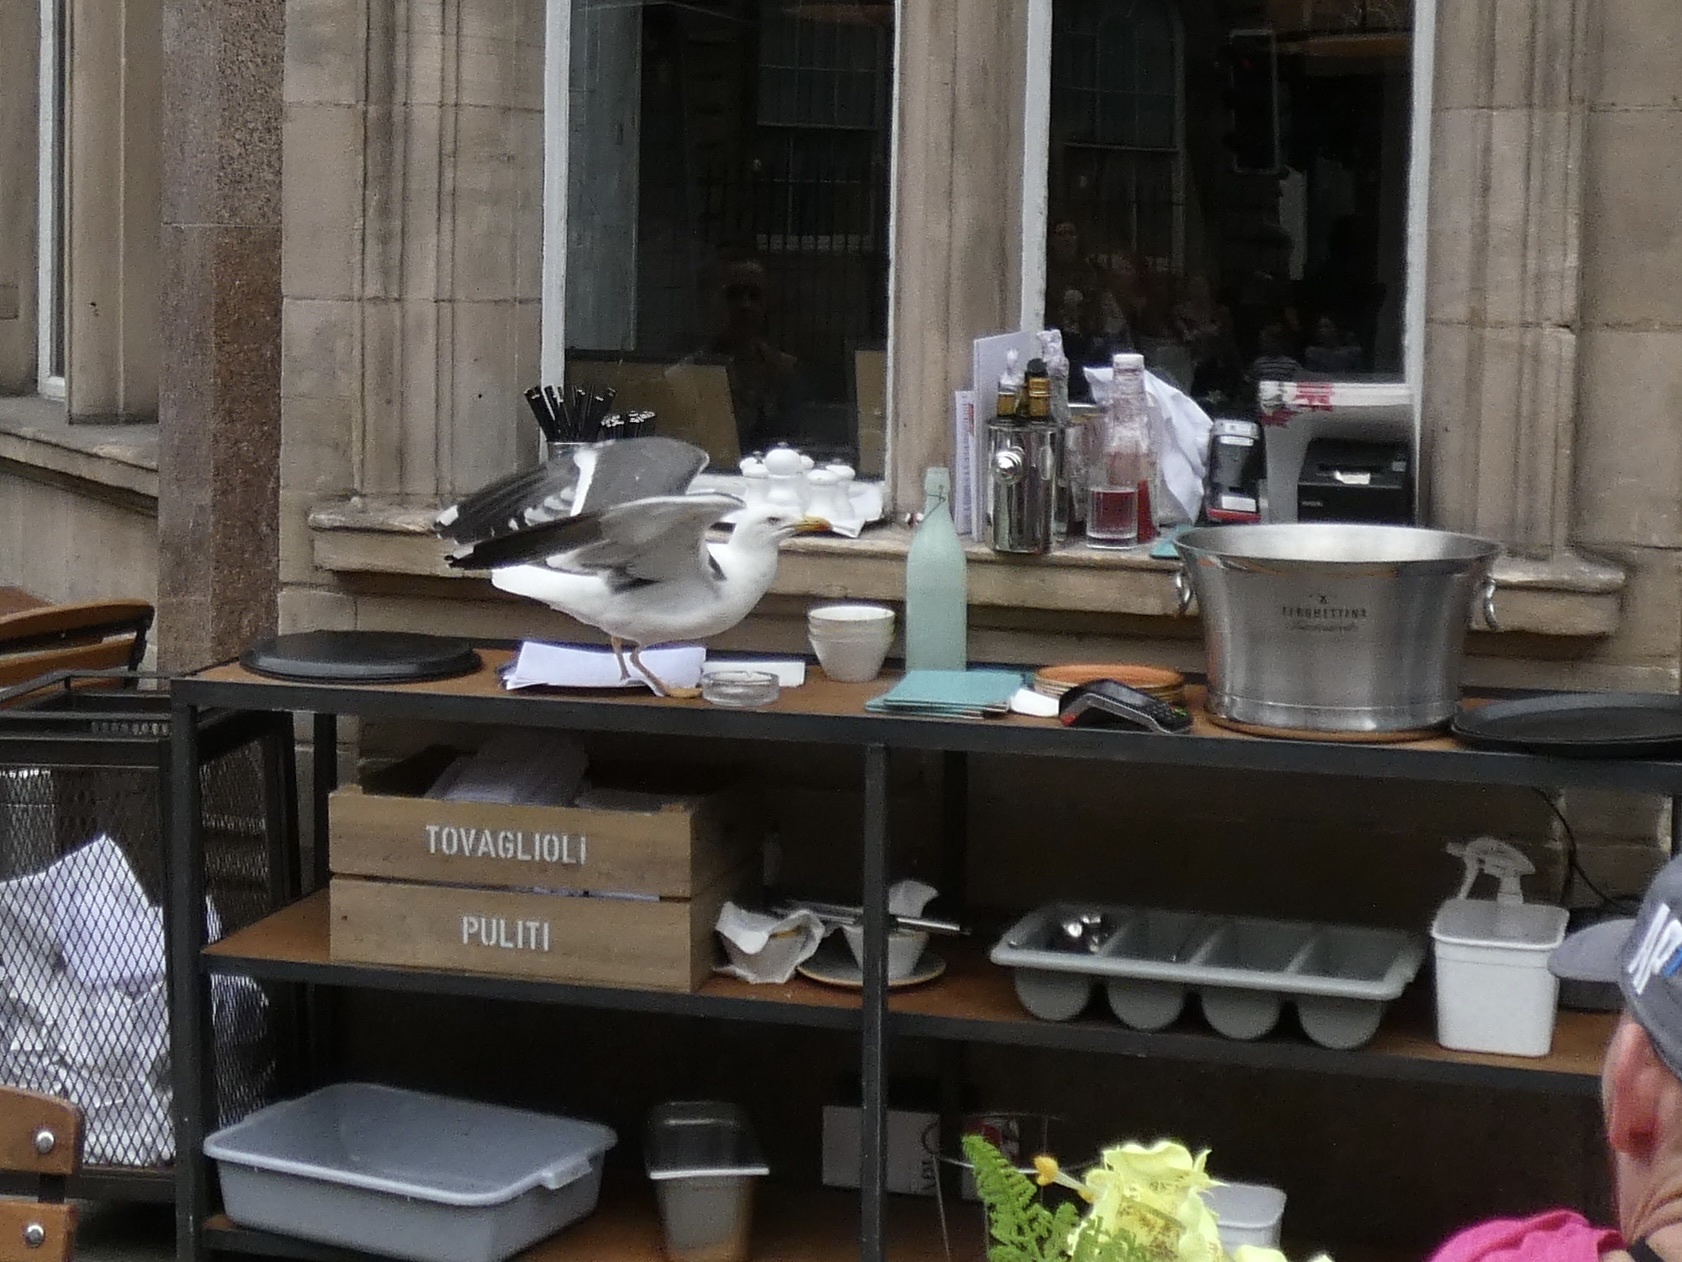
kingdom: Animalia
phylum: Chordata
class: Aves
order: Charadriiformes
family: Laridae
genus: Larus
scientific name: Larus fuscus
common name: Lesser black-backed gull
